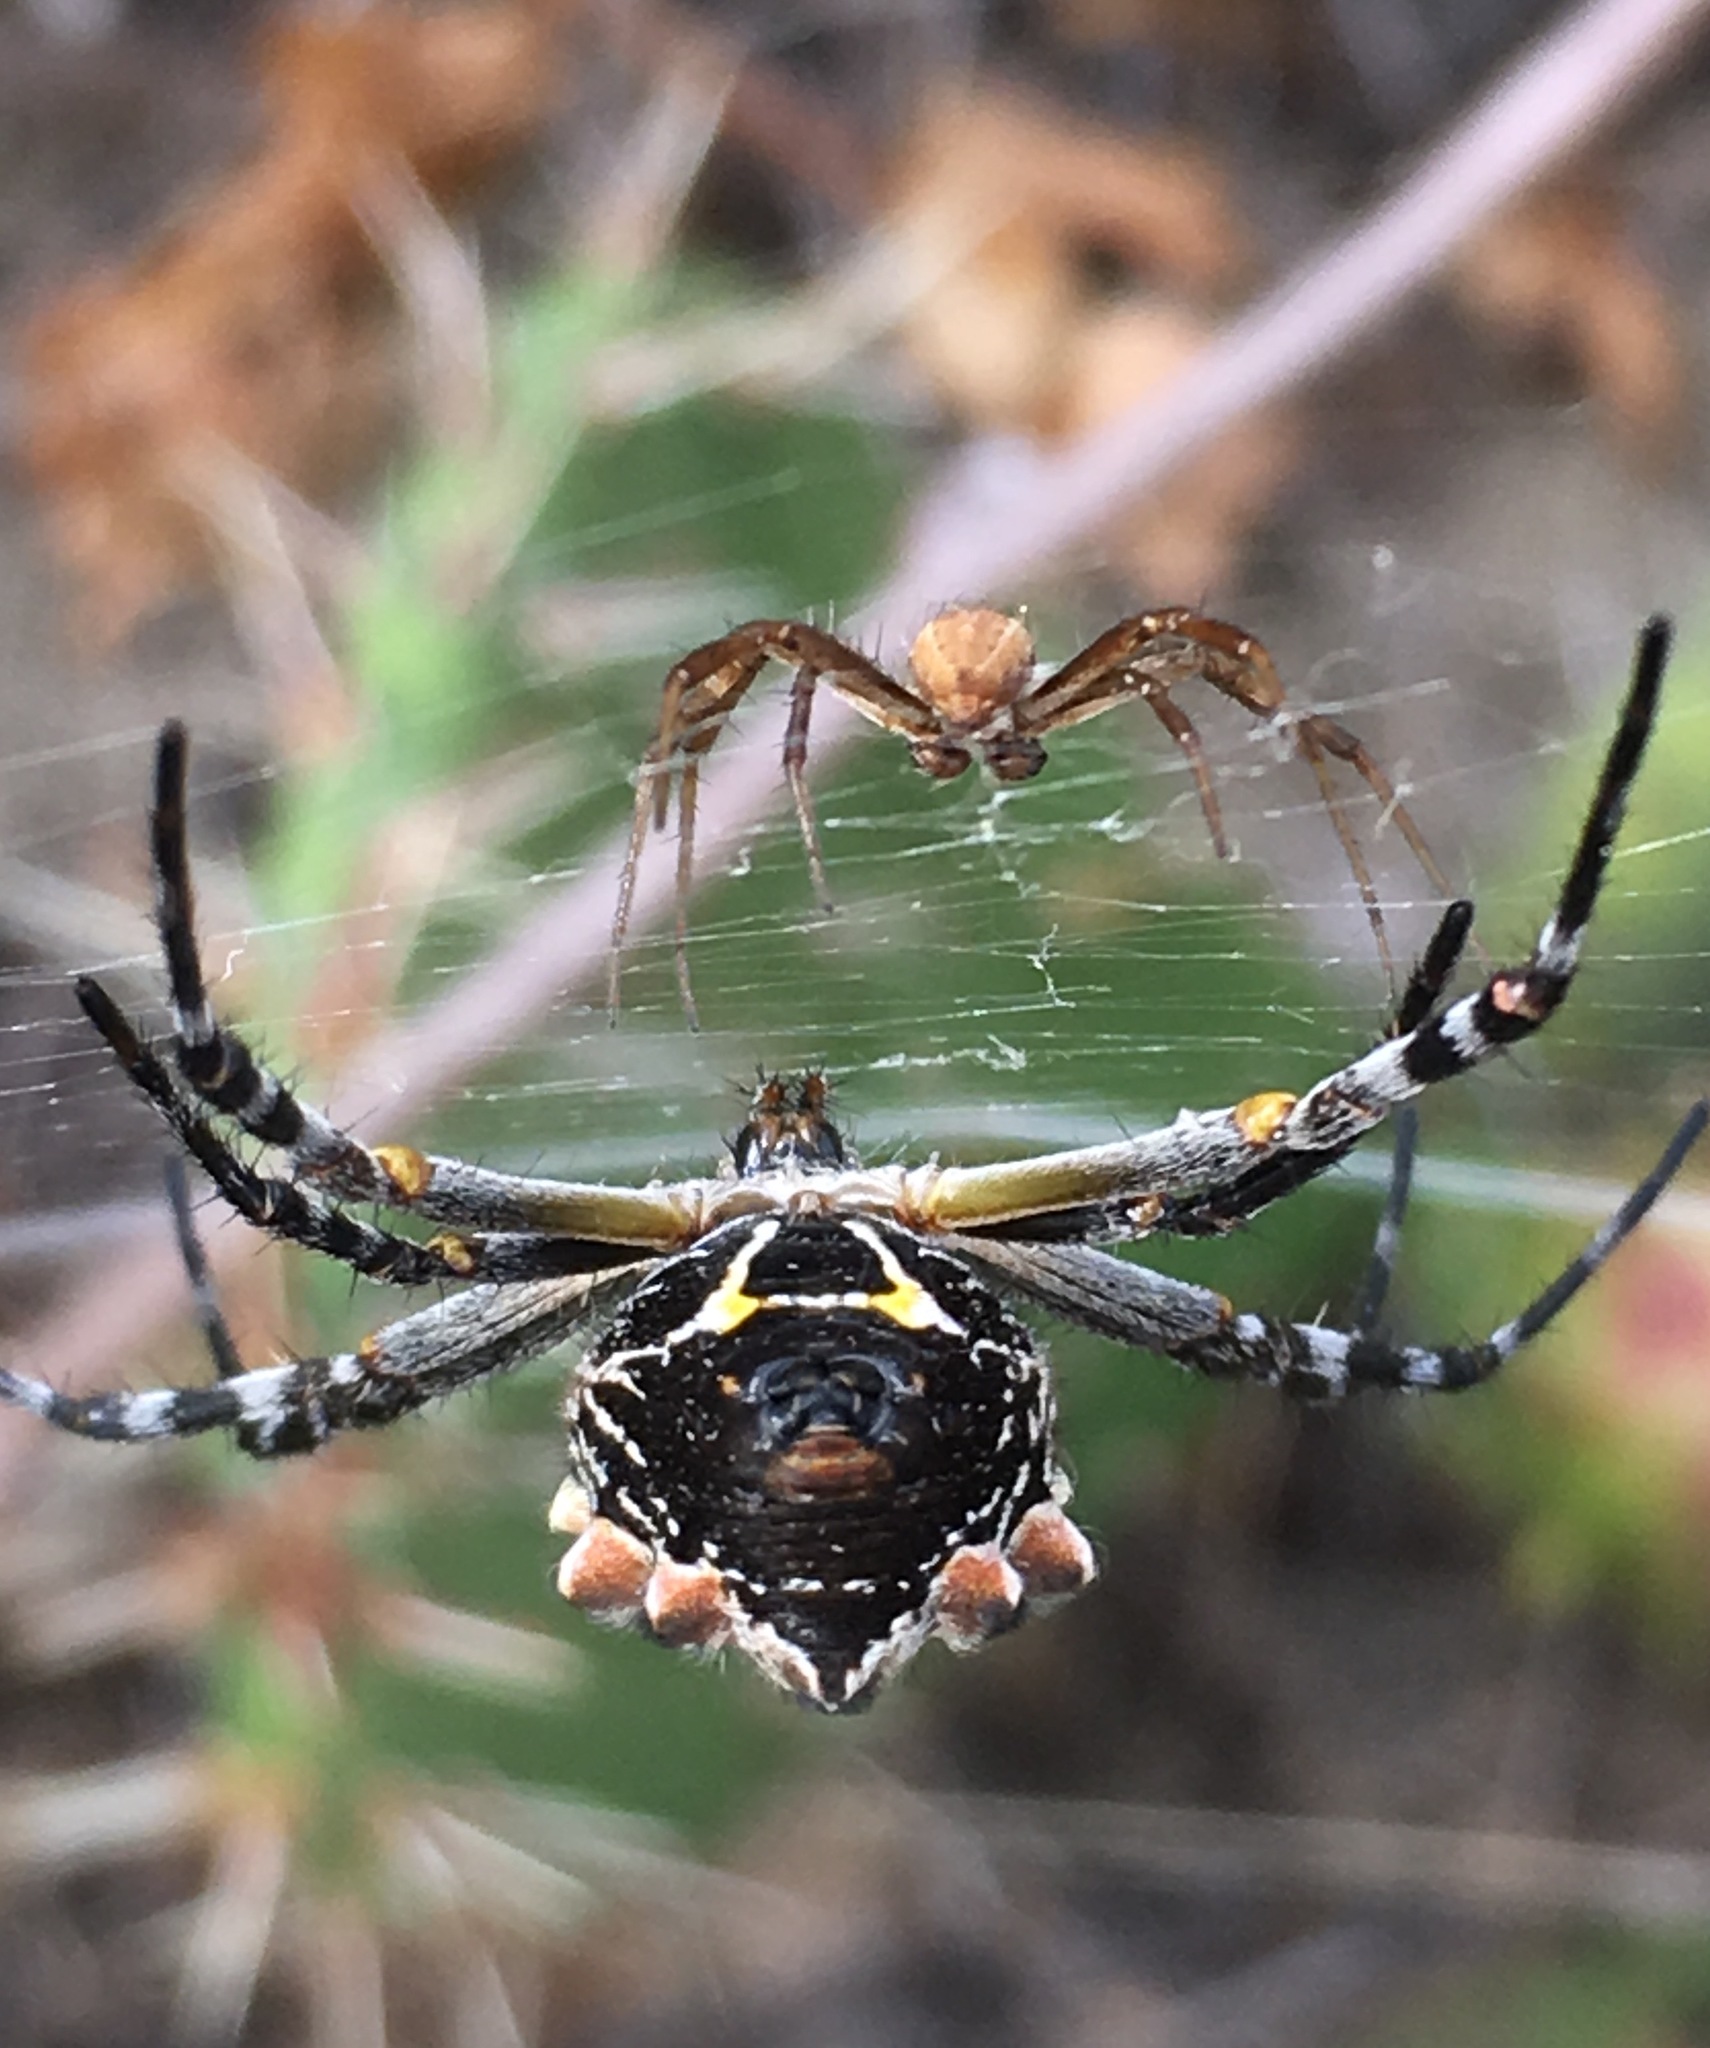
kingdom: Animalia
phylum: Arthropoda
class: Arachnida
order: Araneae
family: Araneidae
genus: Argiope
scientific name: Argiope argentata
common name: Orb weavers
